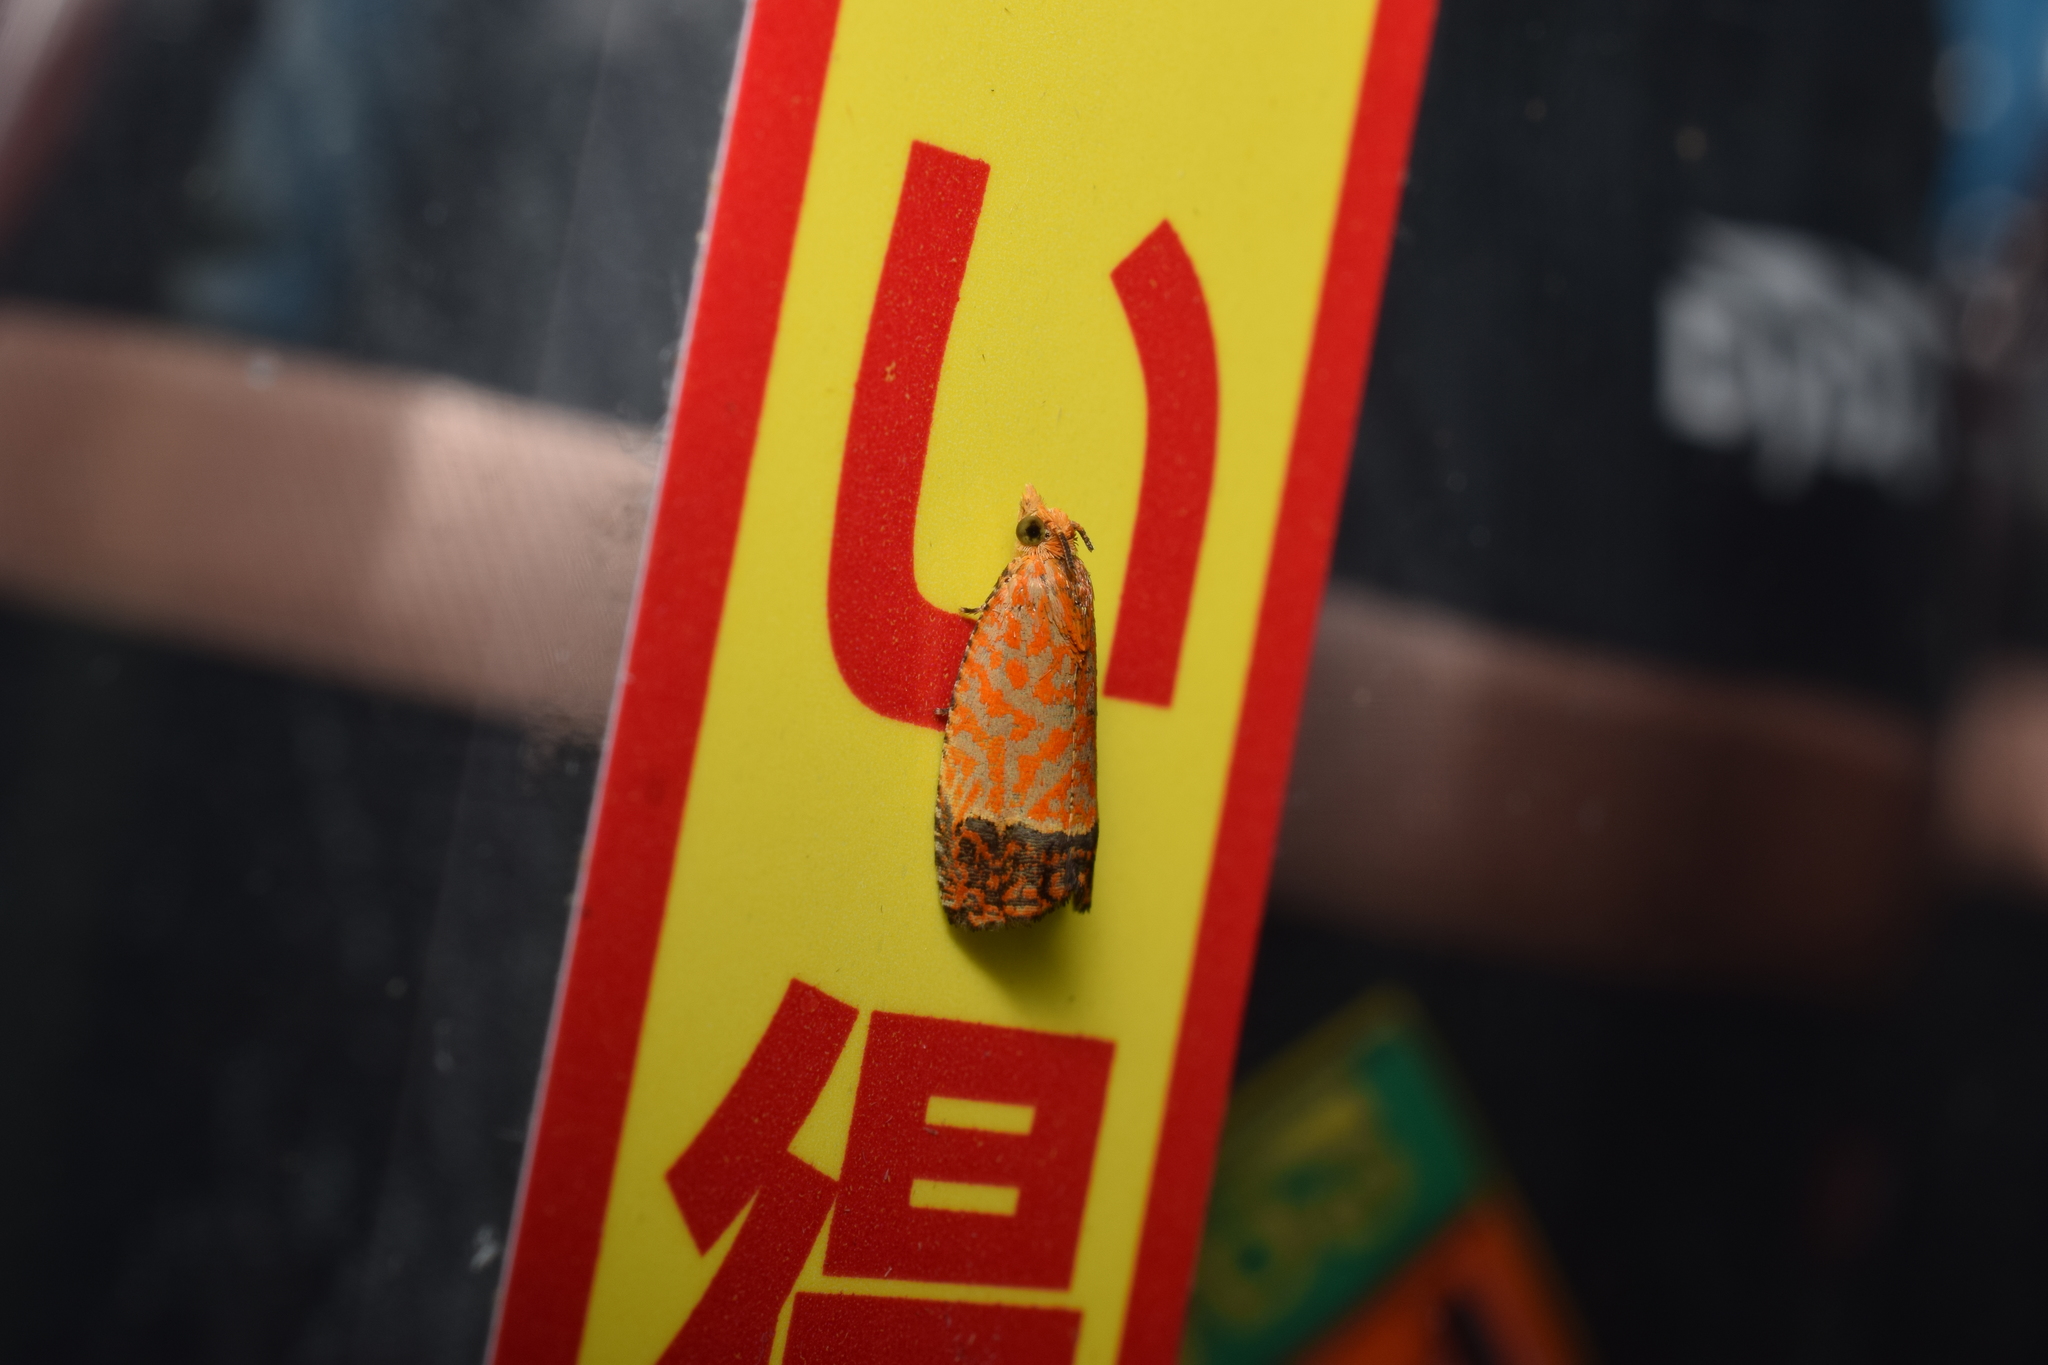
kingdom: Animalia
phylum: Arthropoda
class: Insecta
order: Lepidoptera
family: Tortricidae
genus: Loboschiza
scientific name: Loboschiza koenigiana
